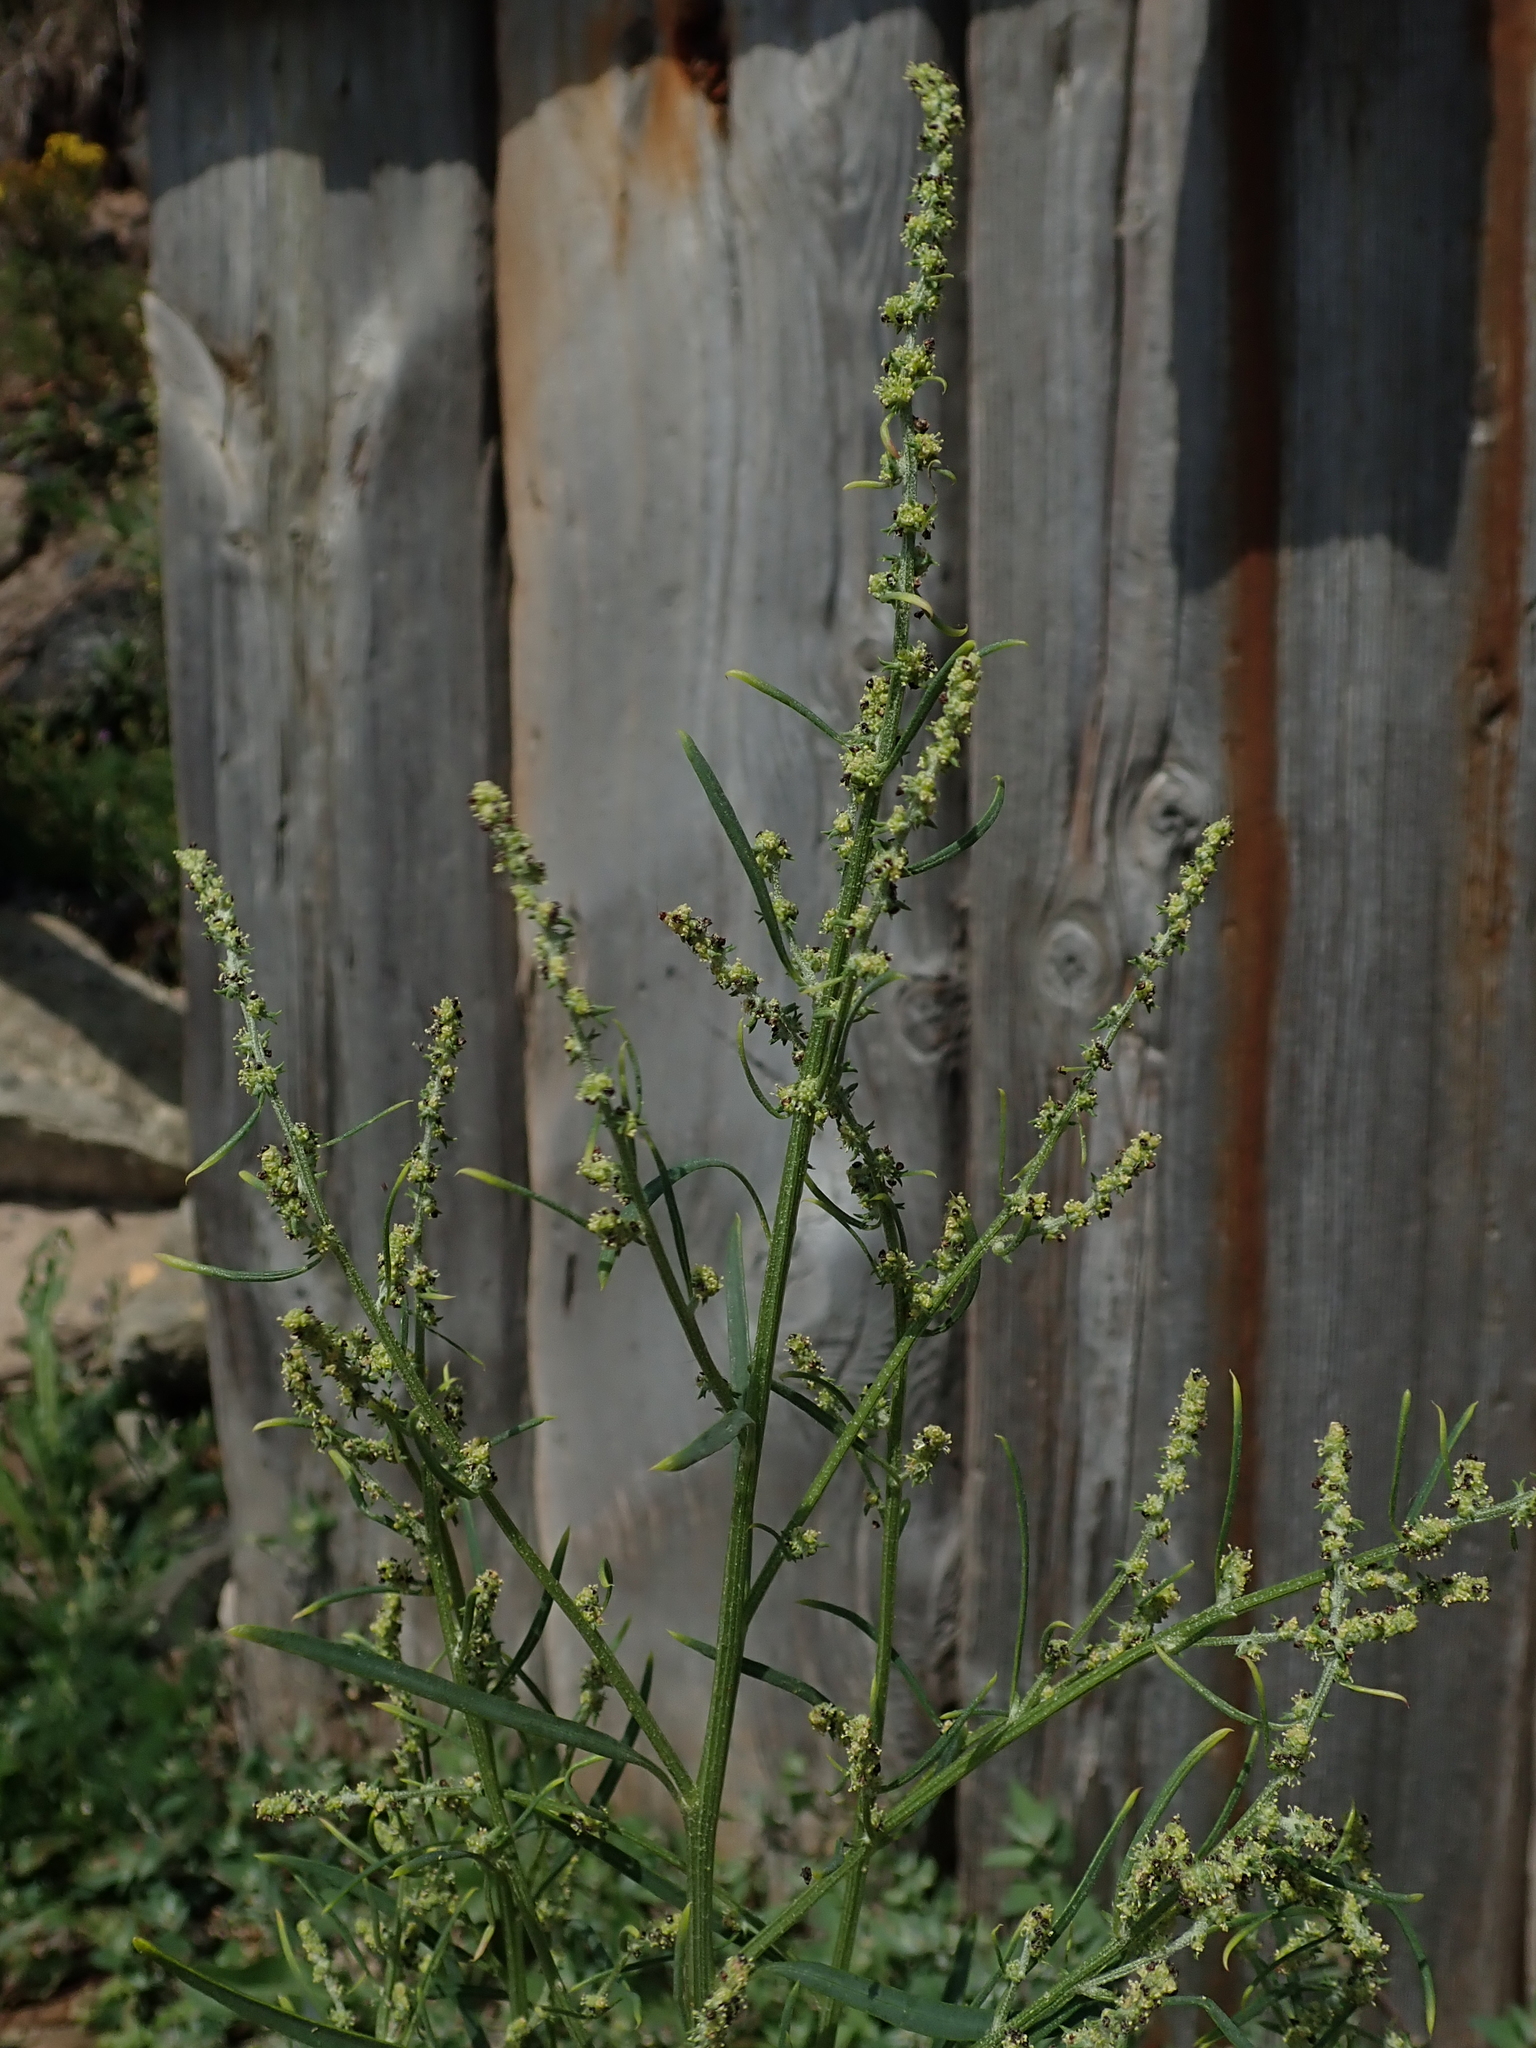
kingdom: Plantae
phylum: Tracheophyta
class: Magnoliopsida
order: Caryophyllales
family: Amaranthaceae
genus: Atriplex
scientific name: Atriplex littoralis
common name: Grass-leaved orache
